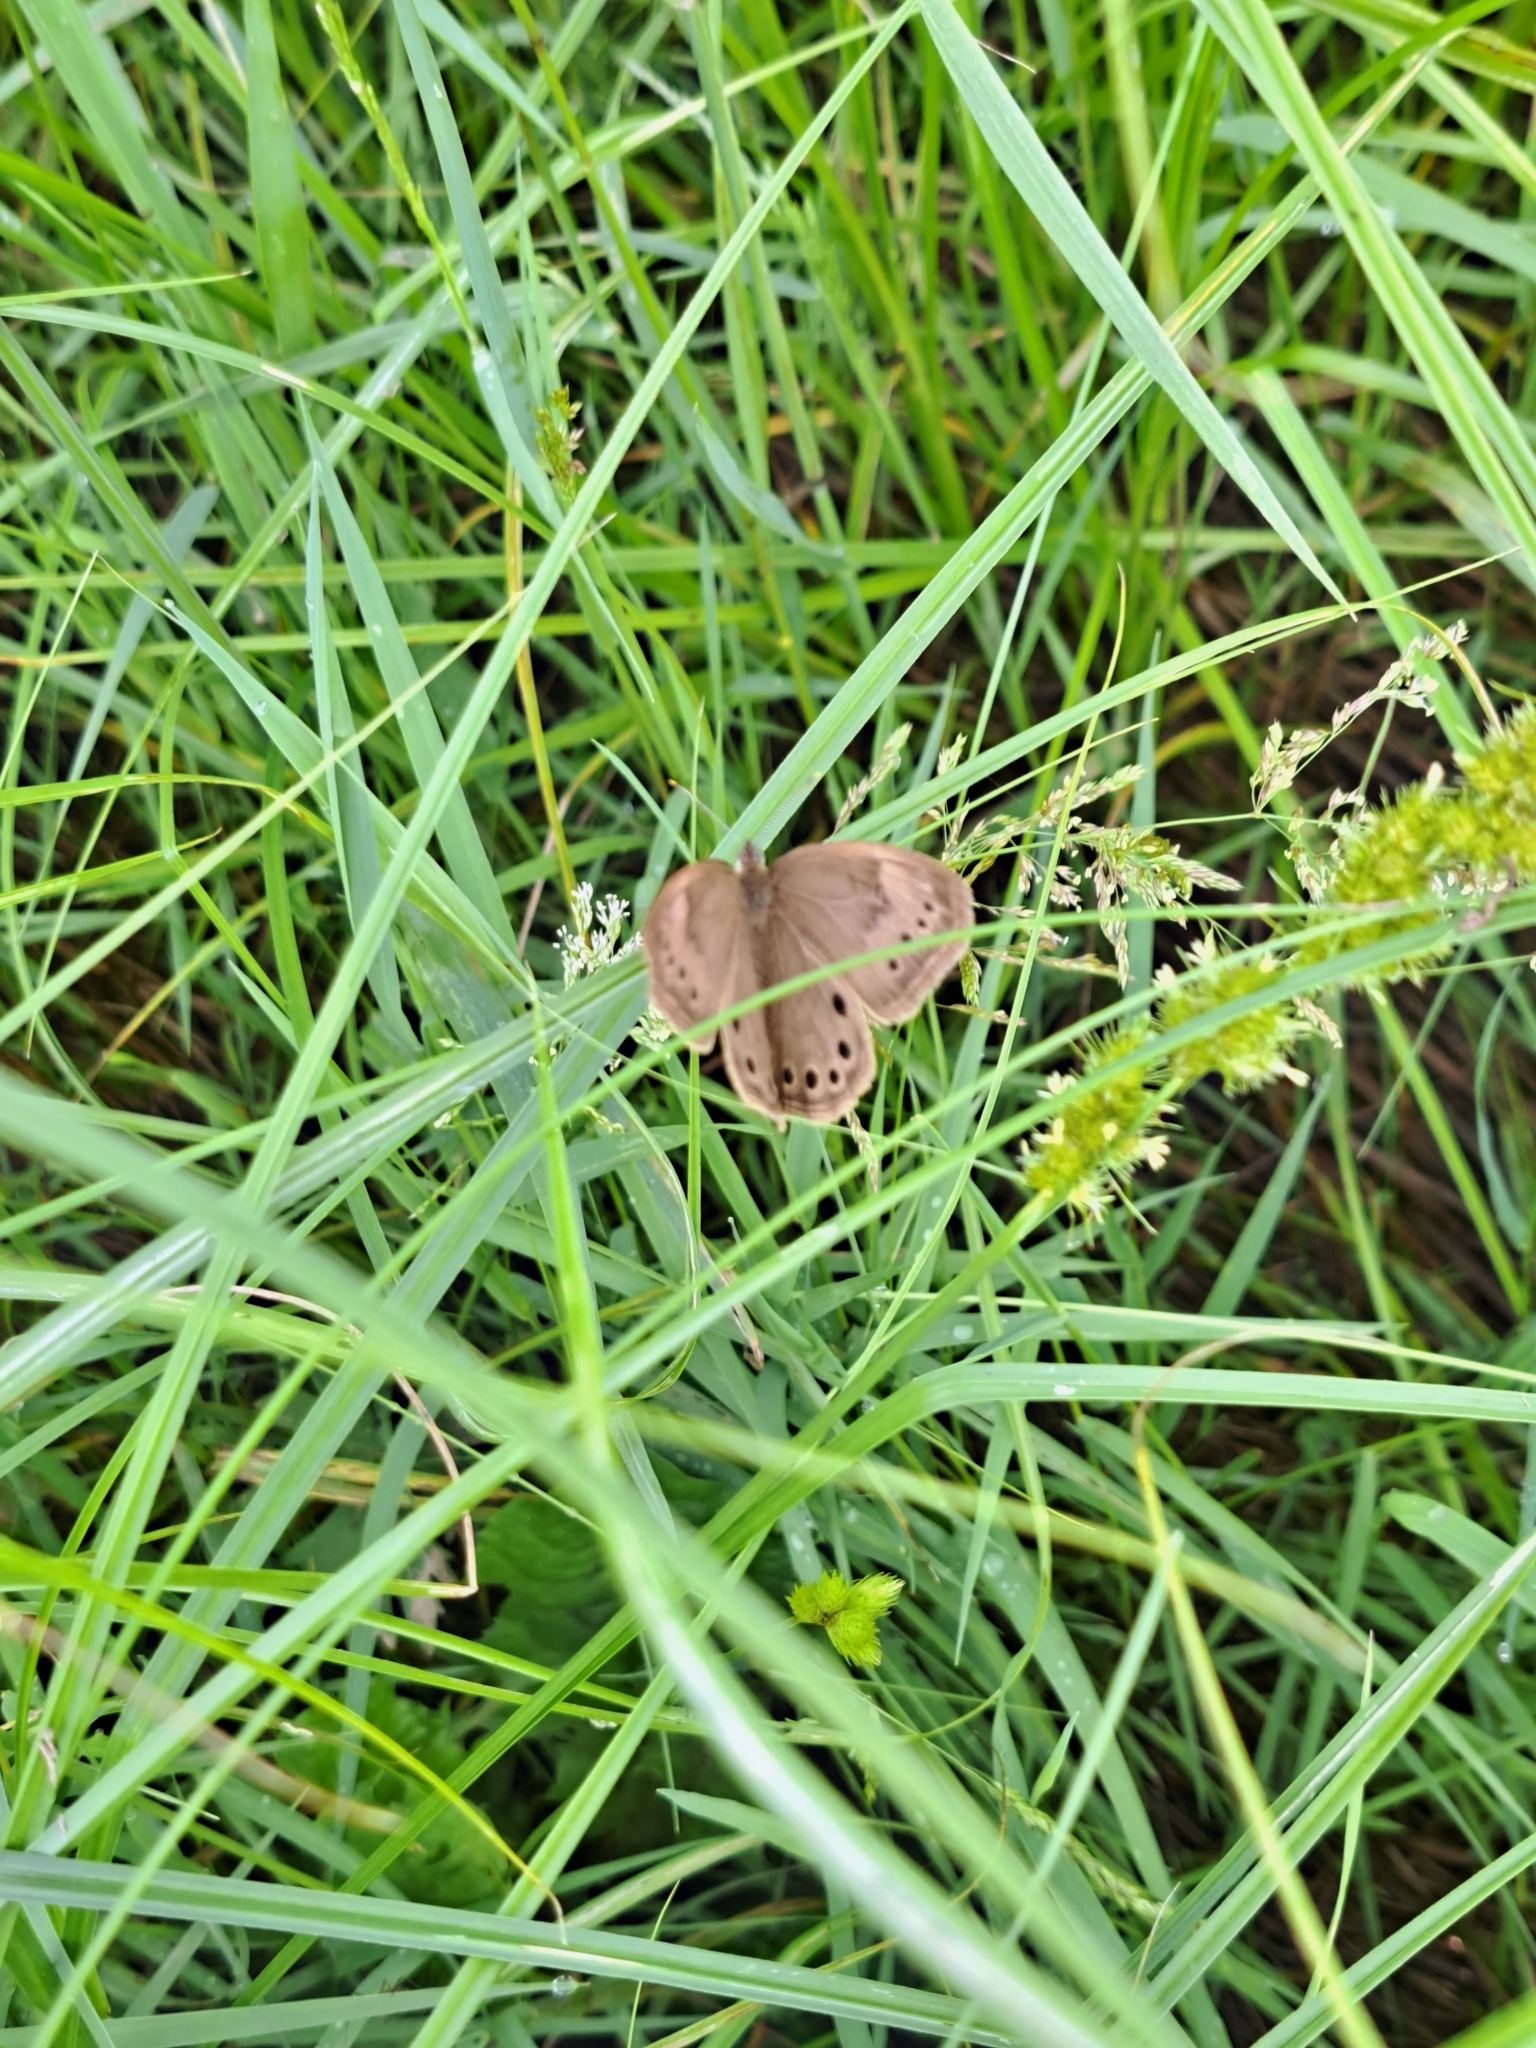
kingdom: Animalia
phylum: Arthropoda
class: Insecta
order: Lepidoptera
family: Nymphalidae
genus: Lethe
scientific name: Lethe eurydice
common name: Eyed brown
